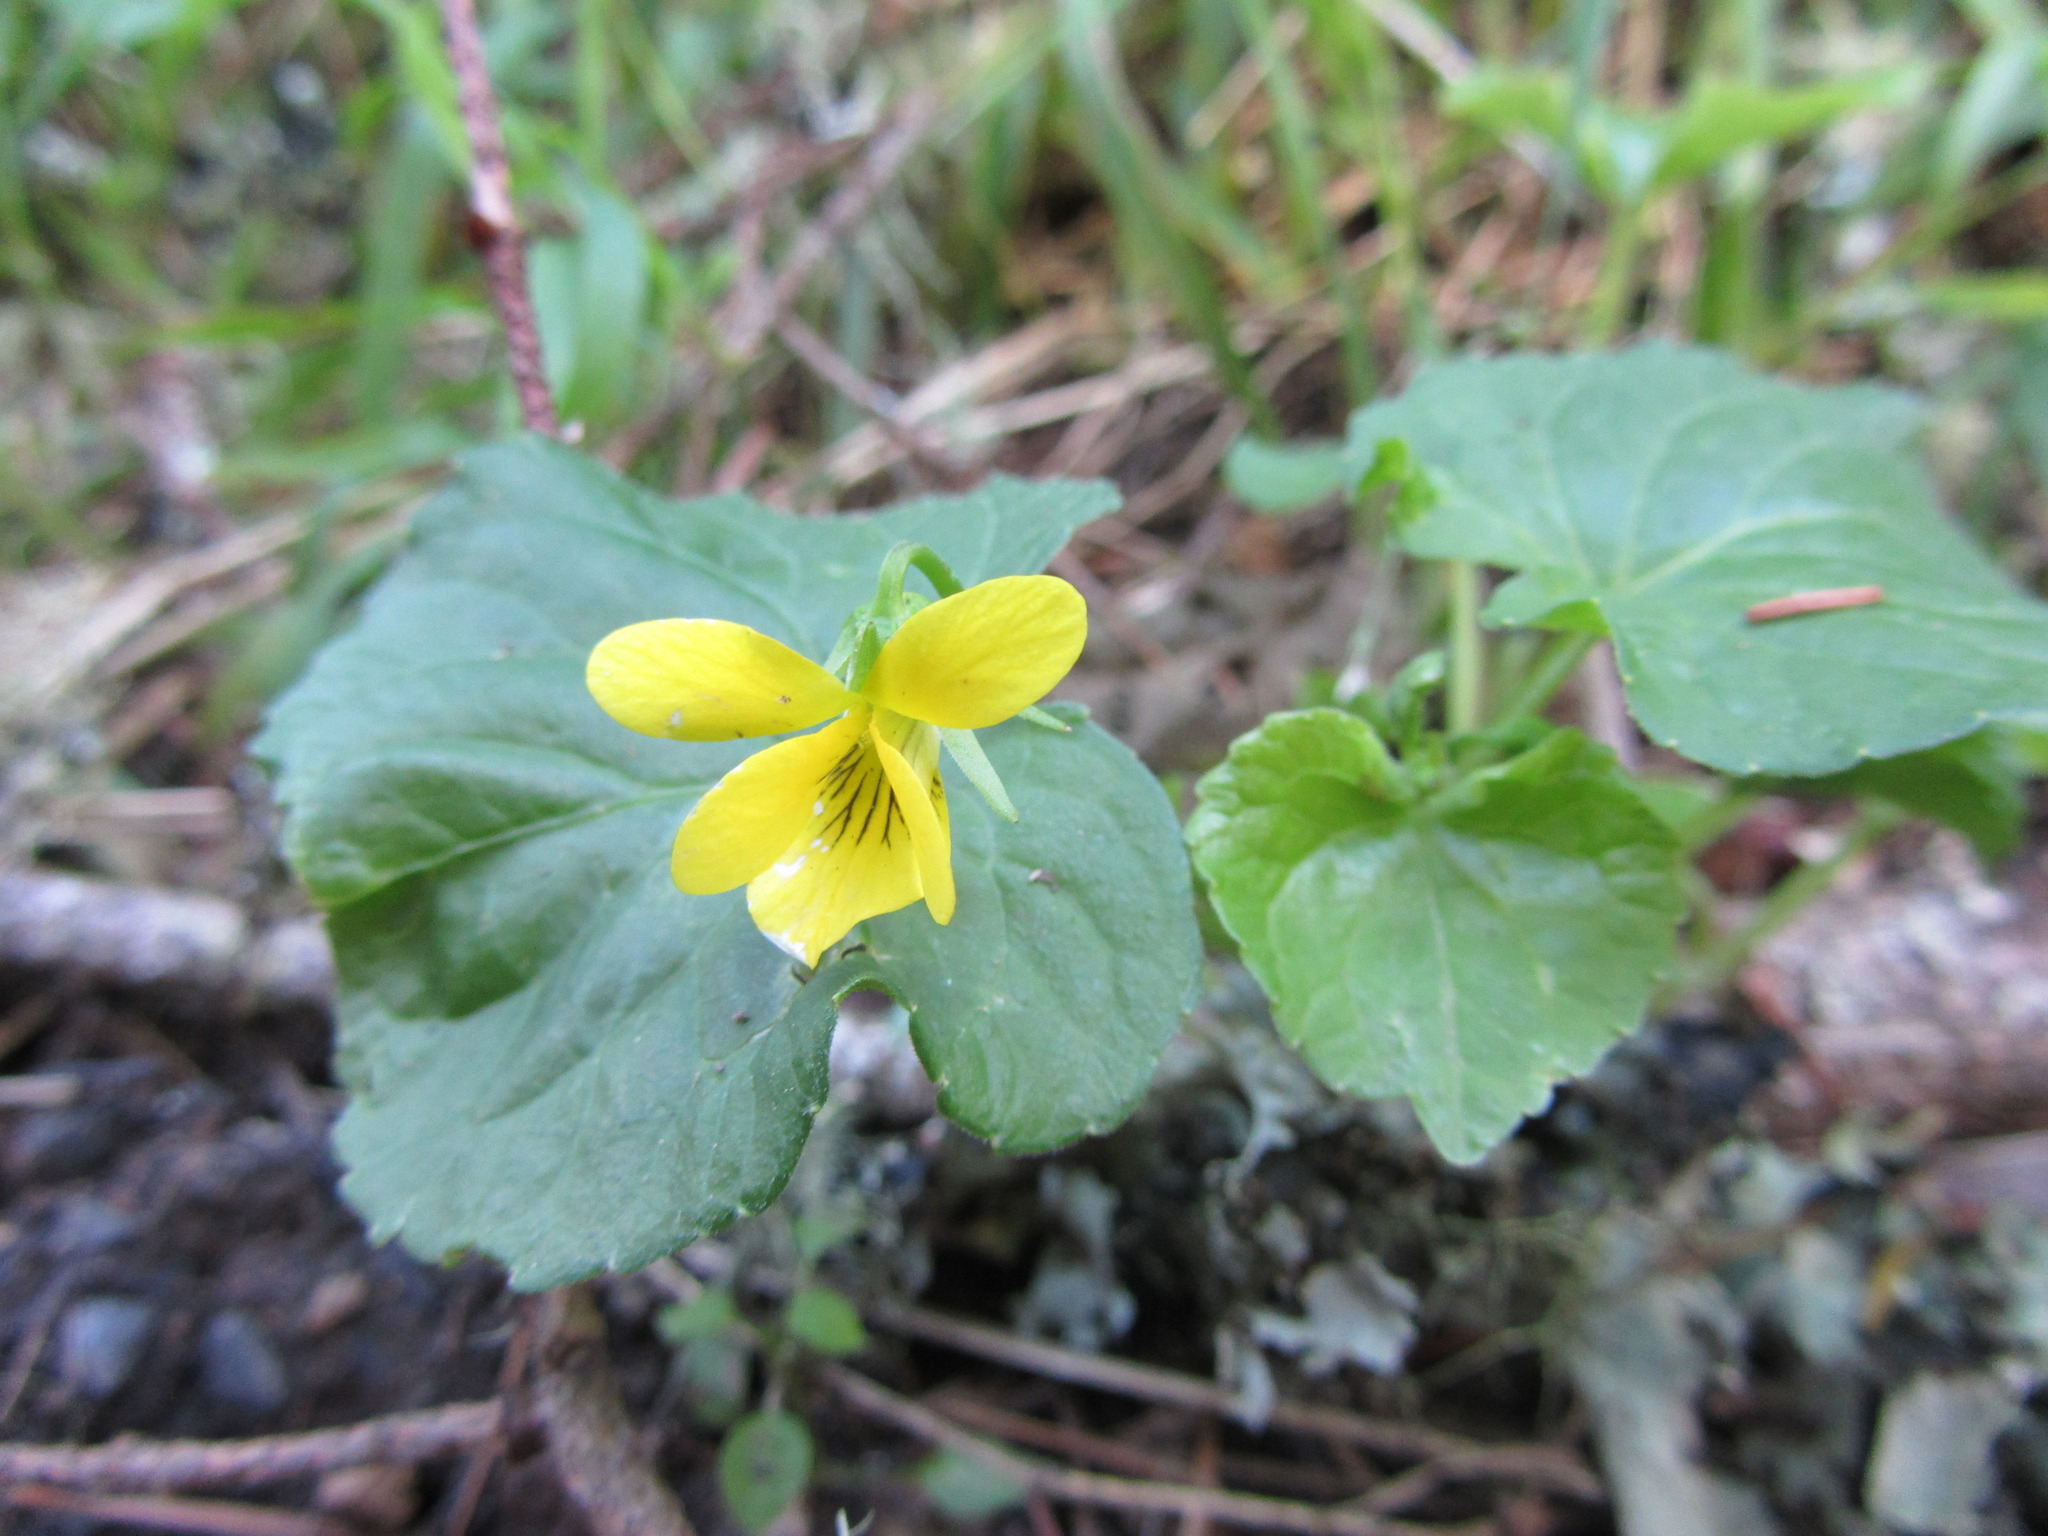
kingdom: Plantae
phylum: Tracheophyta
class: Magnoliopsida
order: Malpighiales
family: Violaceae
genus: Viola
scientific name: Viola glabella
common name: Stream violet
